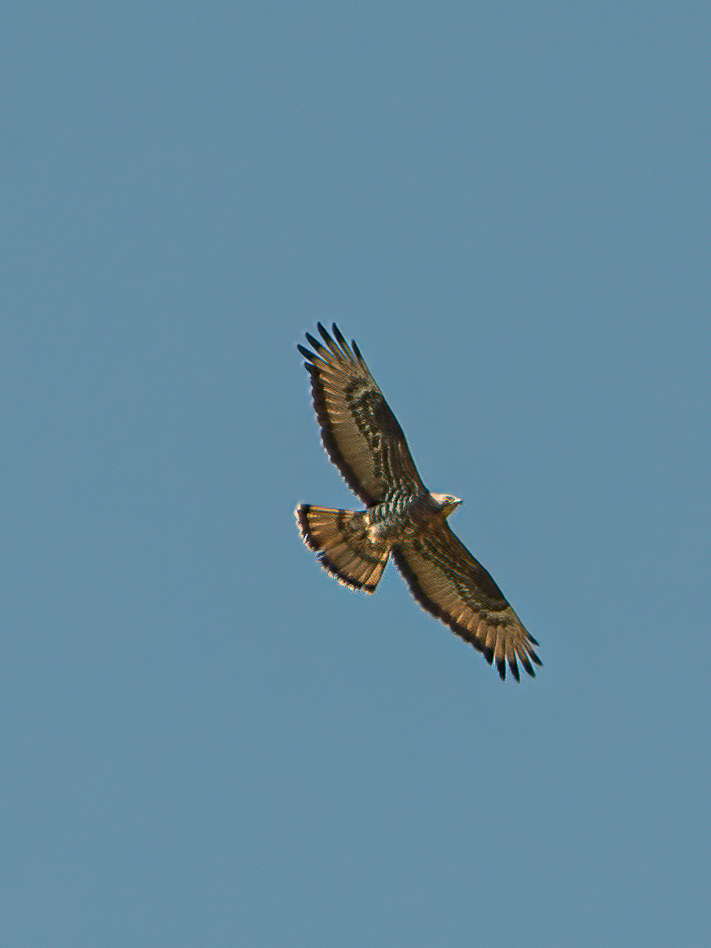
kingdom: Animalia
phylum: Chordata
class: Aves
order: Accipitriformes
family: Accipitridae
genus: Pernis
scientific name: Pernis apivorus
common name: European honey buzzard
